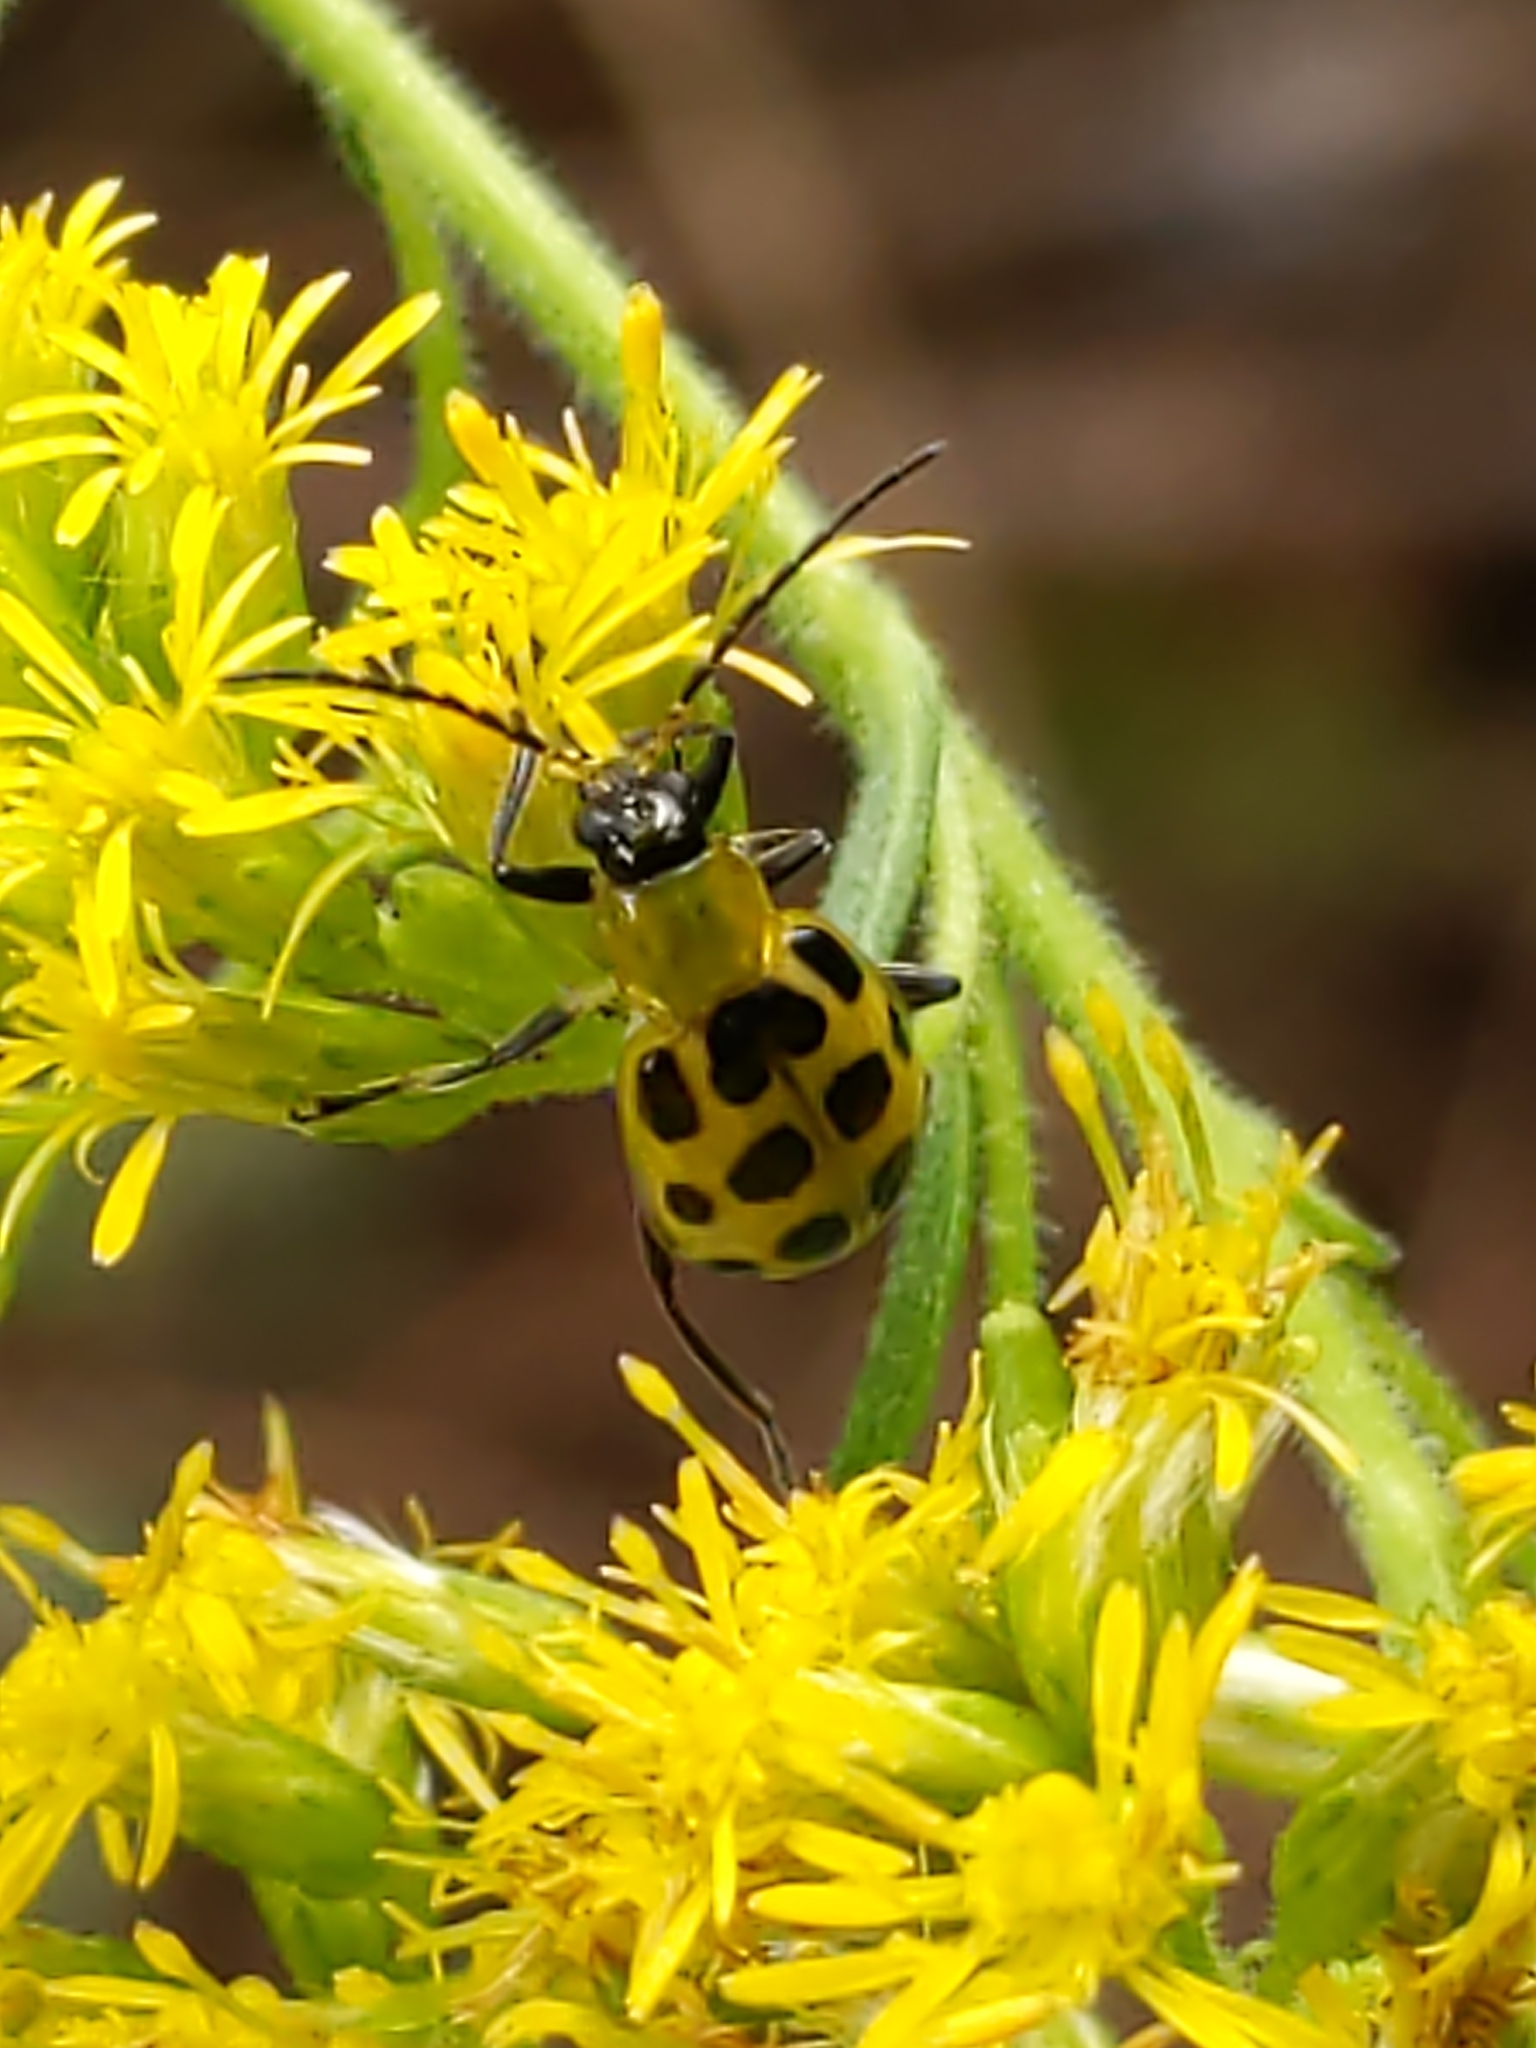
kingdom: Animalia
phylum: Arthropoda
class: Insecta
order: Coleoptera
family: Chrysomelidae
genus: Diabrotica
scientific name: Diabrotica undecimpunctata
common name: Spotted cucumber beetle
